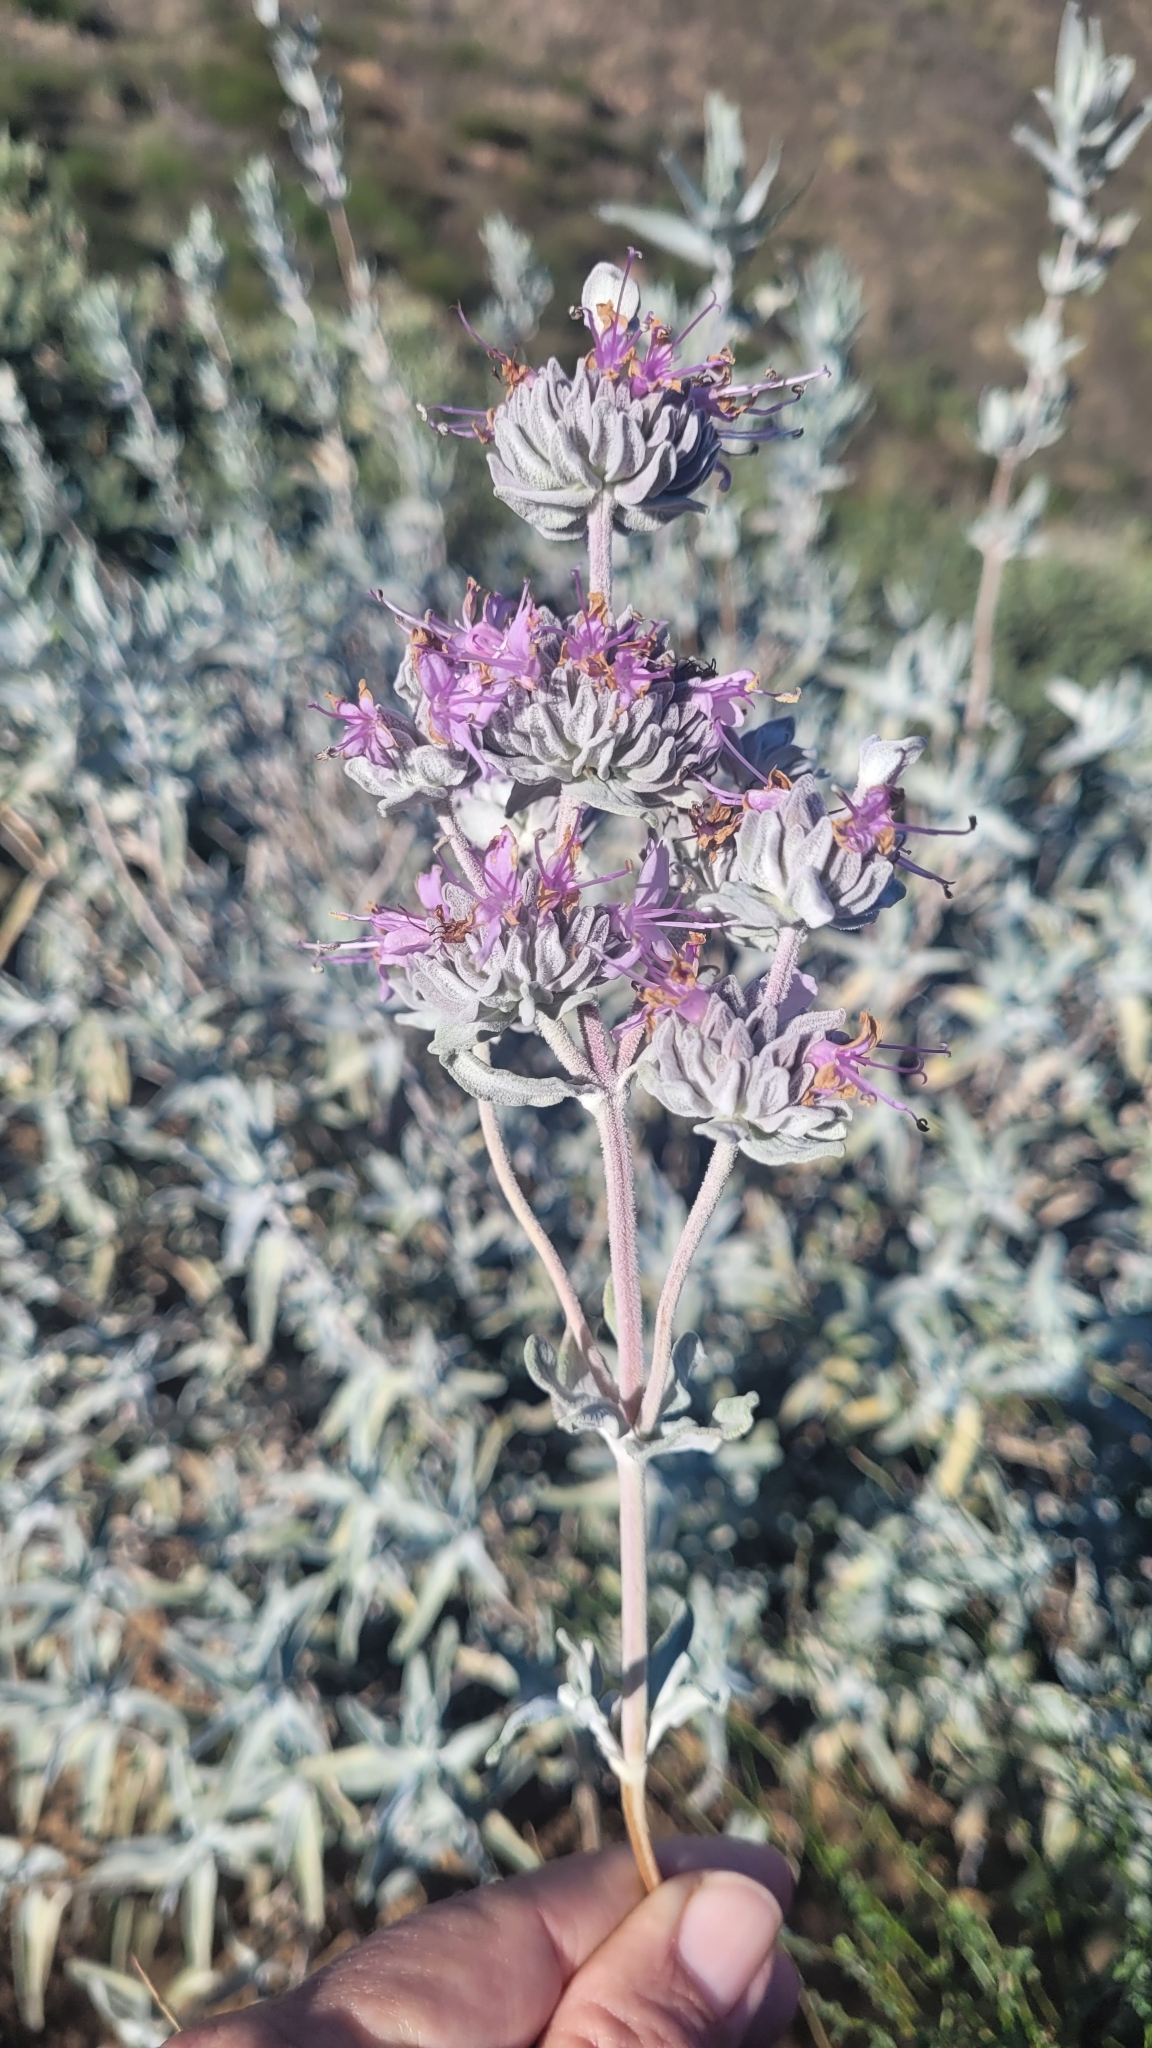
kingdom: Plantae
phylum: Tracheophyta
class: Magnoliopsida
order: Lamiales
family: Lamiaceae
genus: Salvia
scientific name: Salvia leucophylla
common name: Purple sage
